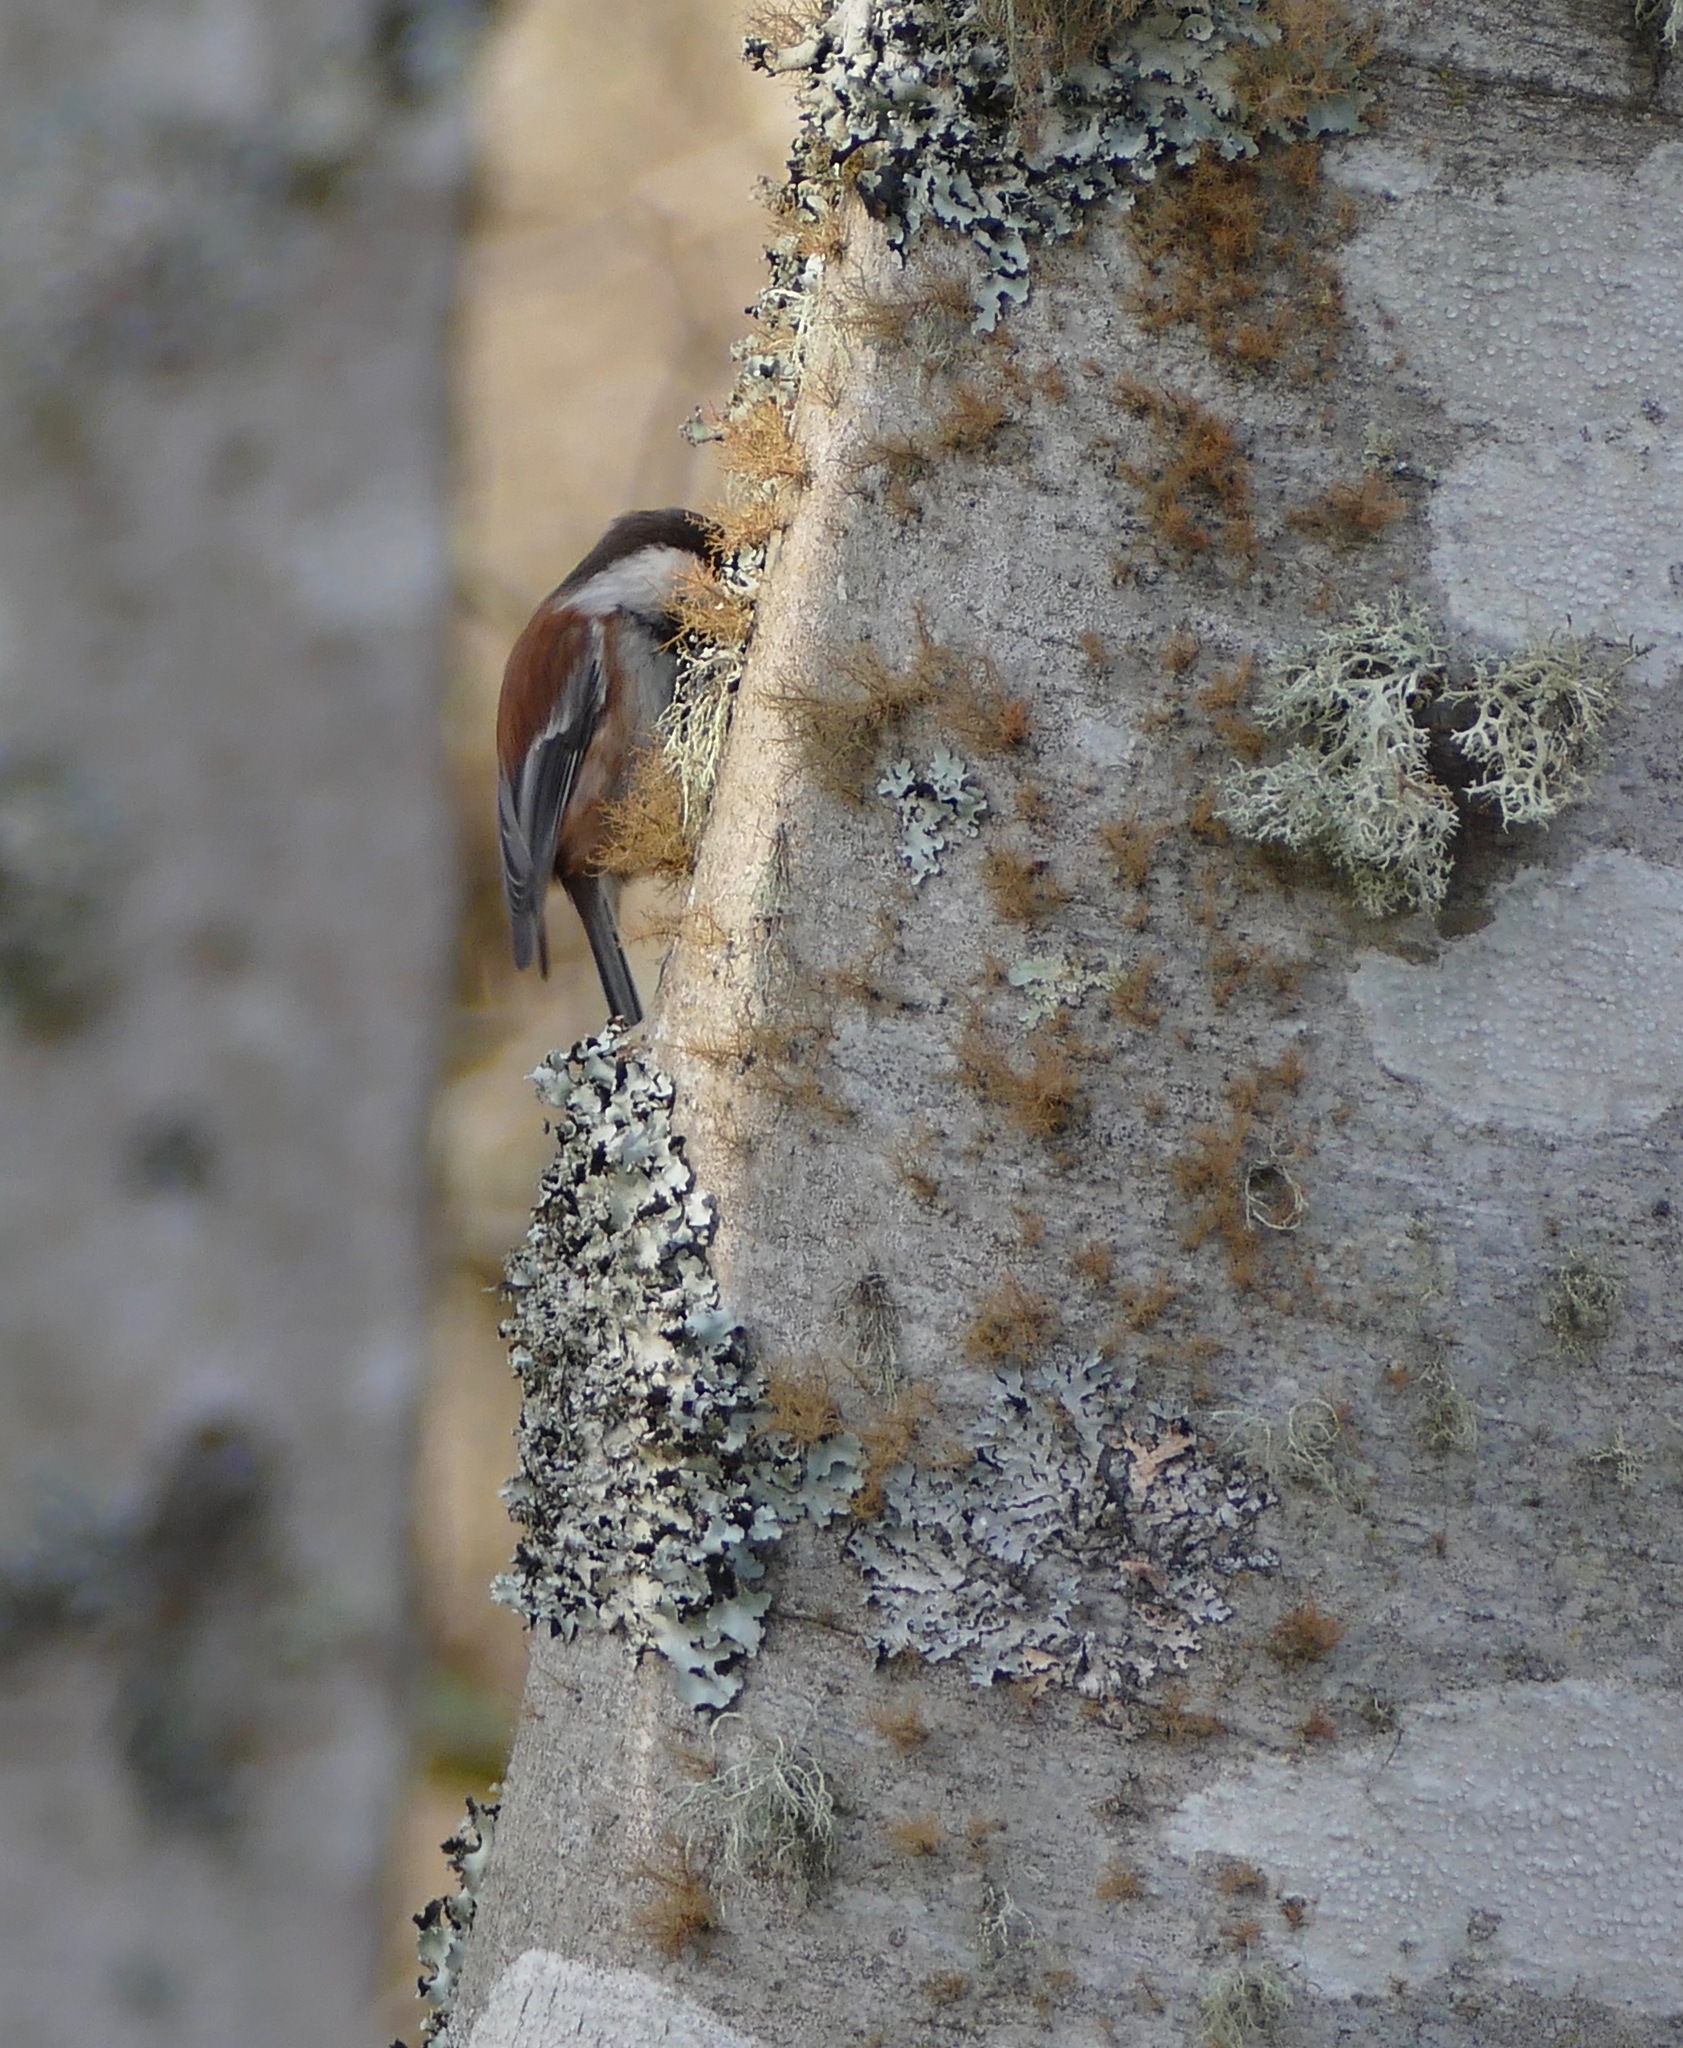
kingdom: Animalia
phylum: Chordata
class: Aves
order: Passeriformes
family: Paridae
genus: Poecile
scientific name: Poecile rufescens
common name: Chestnut-backed chickadee
